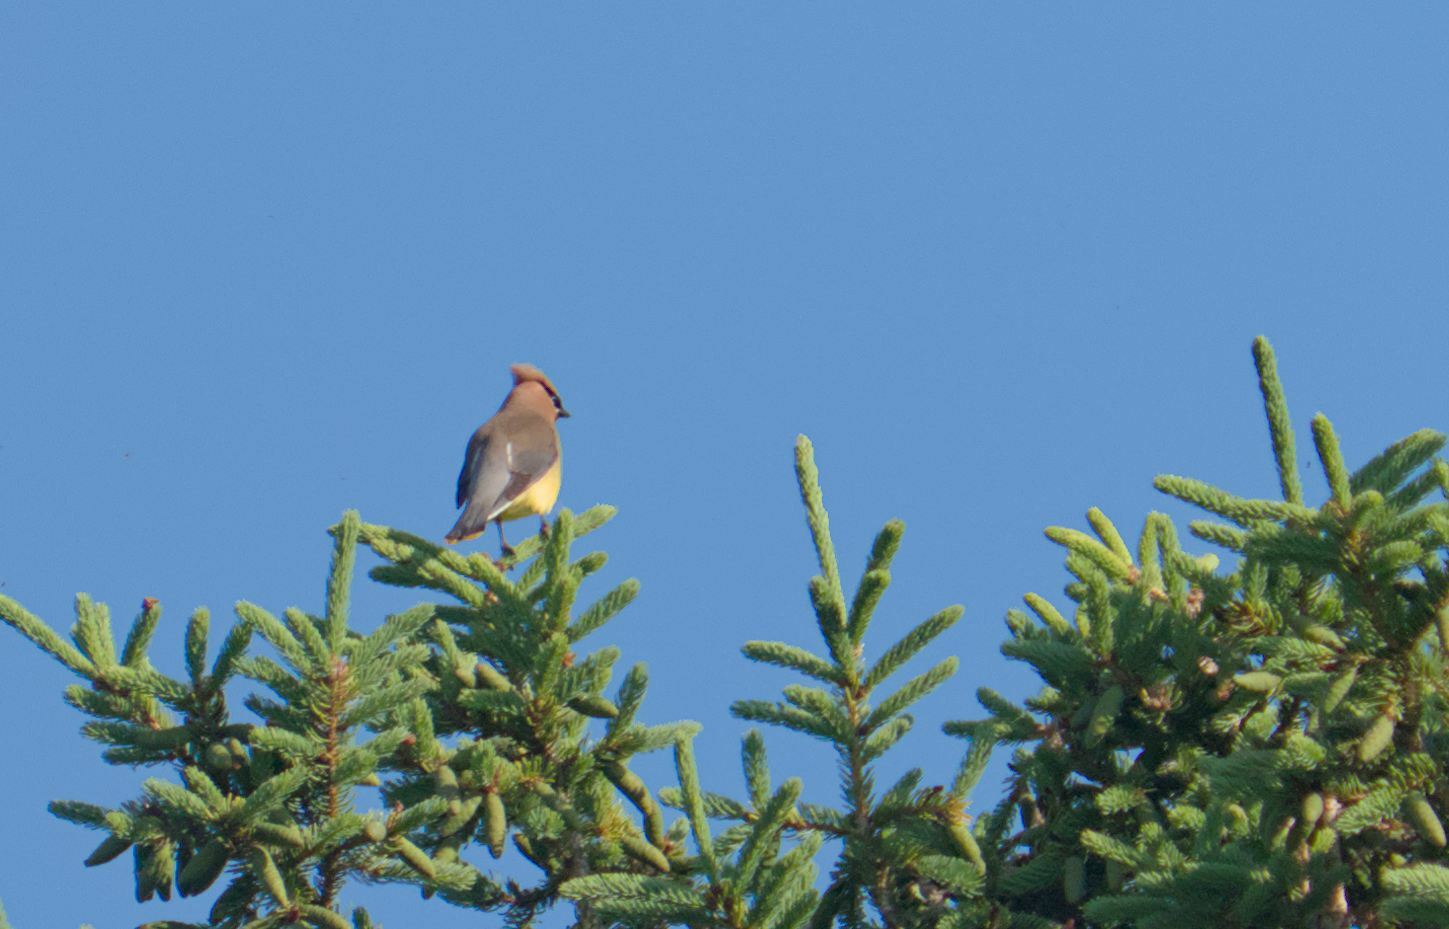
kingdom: Animalia
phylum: Chordata
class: Aves
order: Passeriformes
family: Bombycillidae
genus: Bombycilla
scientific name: Bombycilla cedrorum
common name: Cedar waxwing
